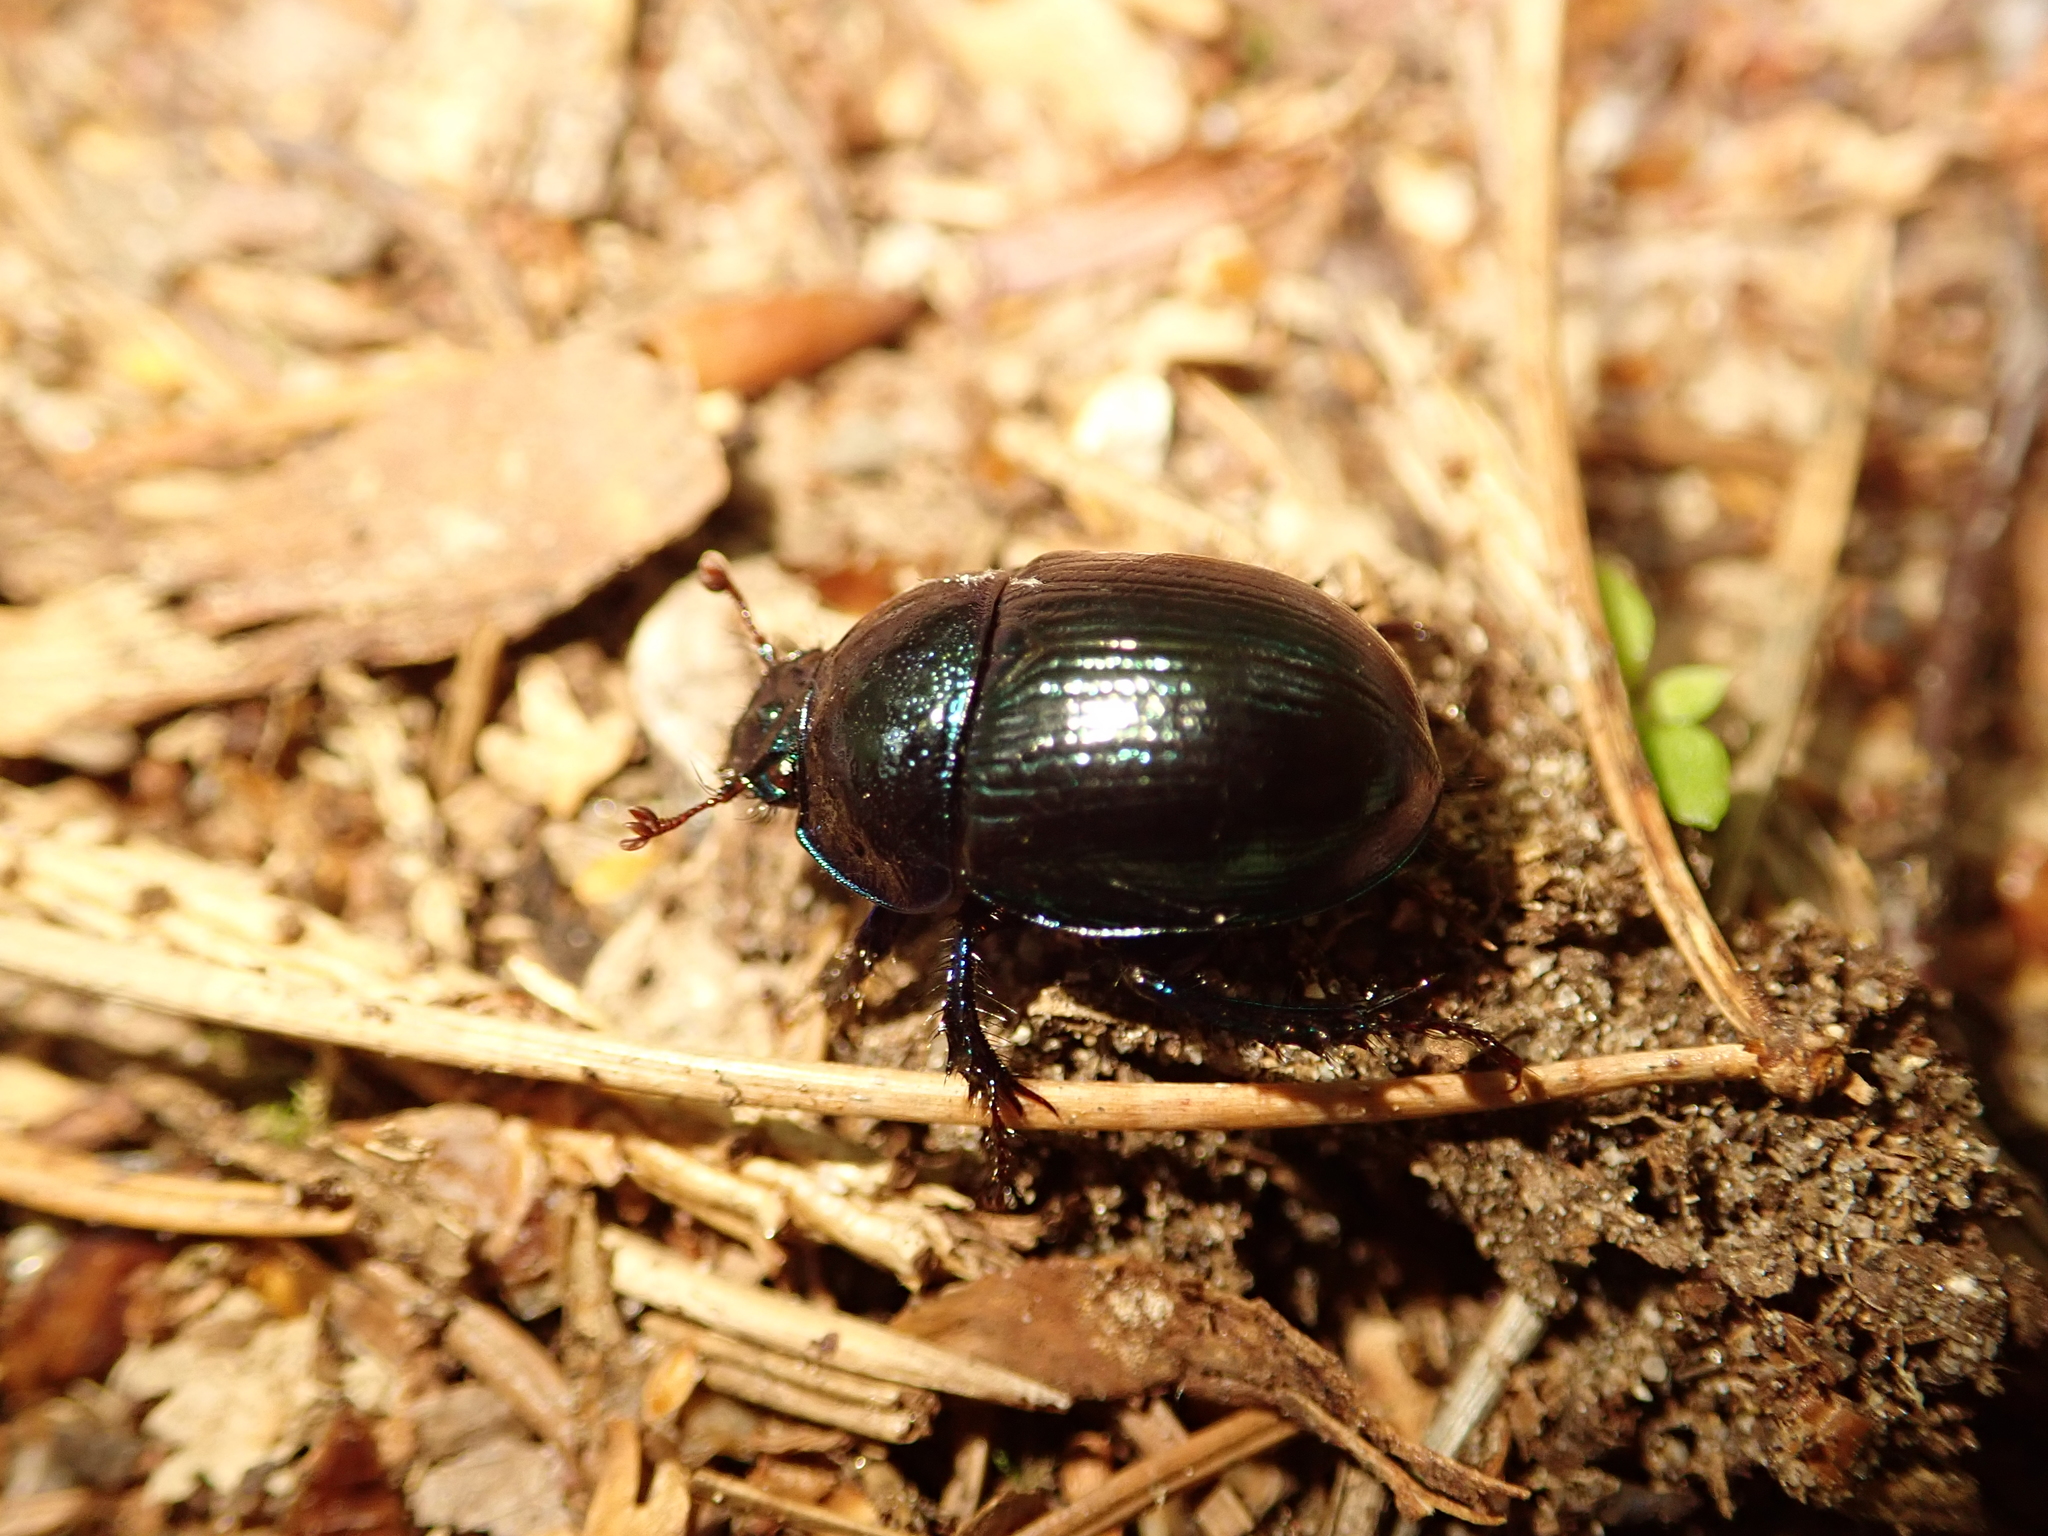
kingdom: Animalia
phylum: Arthropoda
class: Insecta
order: Coleoptera
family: Geotrupidae
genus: Anoplotrupes
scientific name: Anoplotrupes stercorosus
